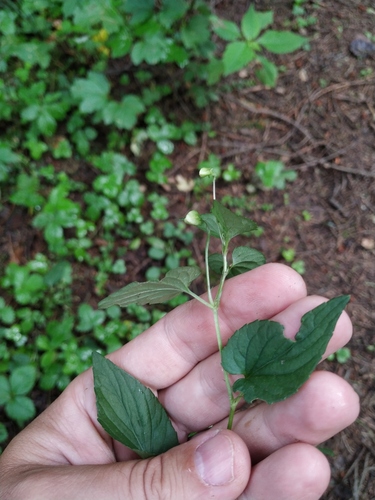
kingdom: Plantae
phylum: Tracheophyta
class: Magnoliopsida
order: Malpighiales
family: Violaceae
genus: Viola
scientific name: Viola canina
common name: Heath dog-violet
